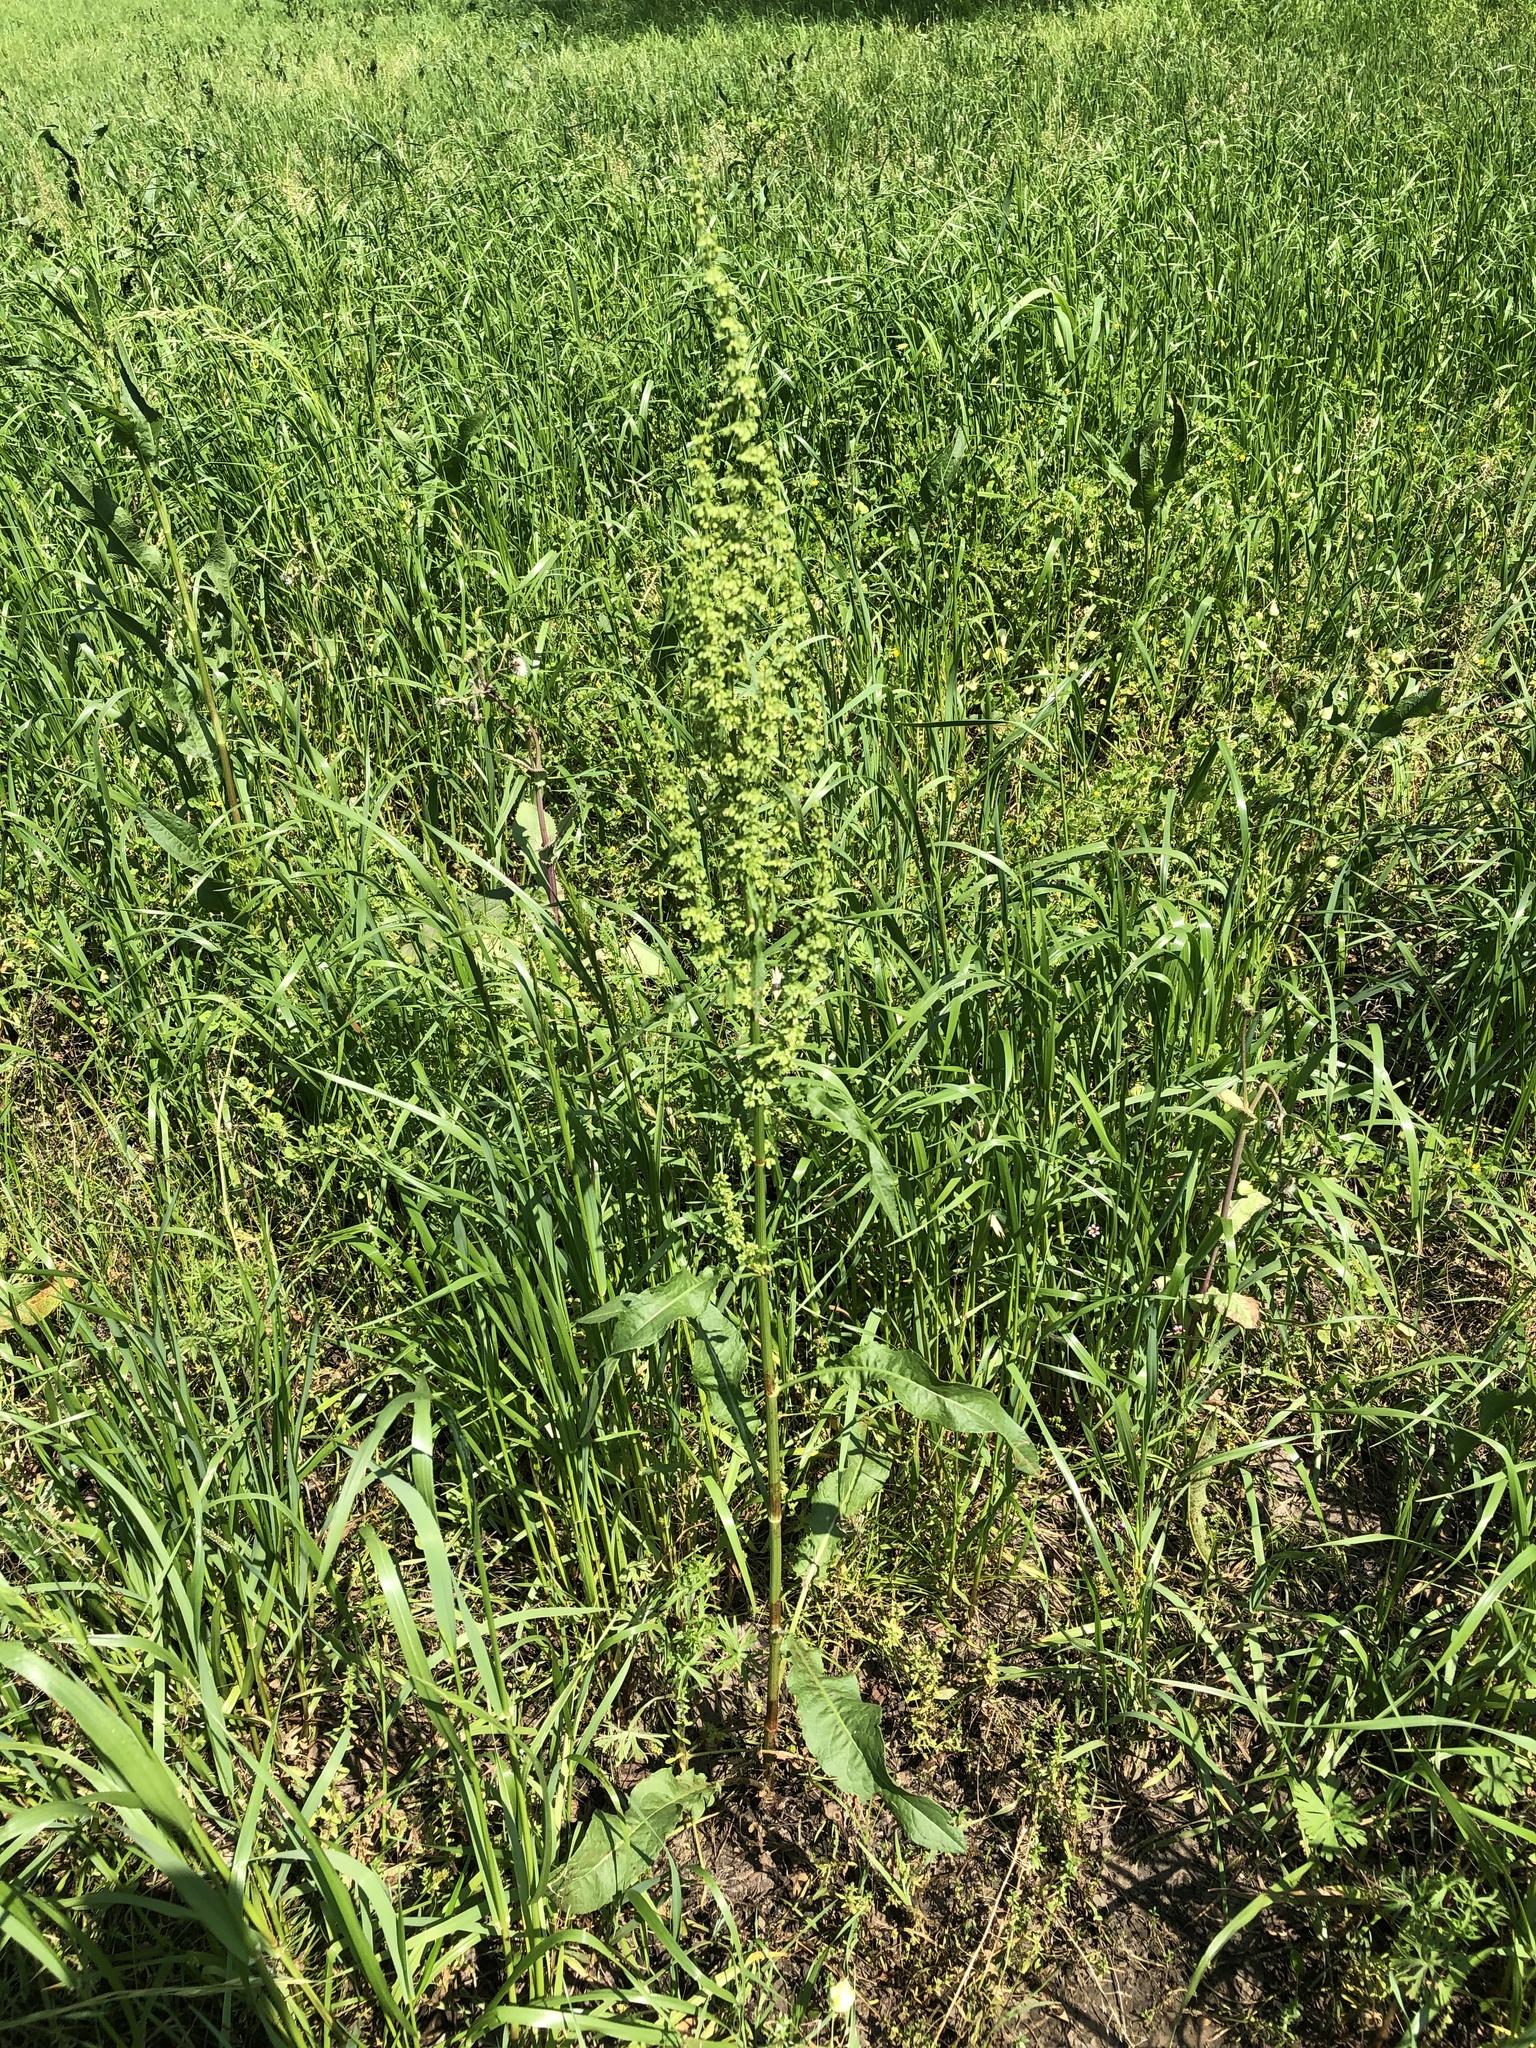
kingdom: Plantae
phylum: Tracheophyta
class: Magnoliopsida
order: Caryophyllales
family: Polygonaceae
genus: Rumex
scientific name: Rumex pulcher
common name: Fiddle dock
